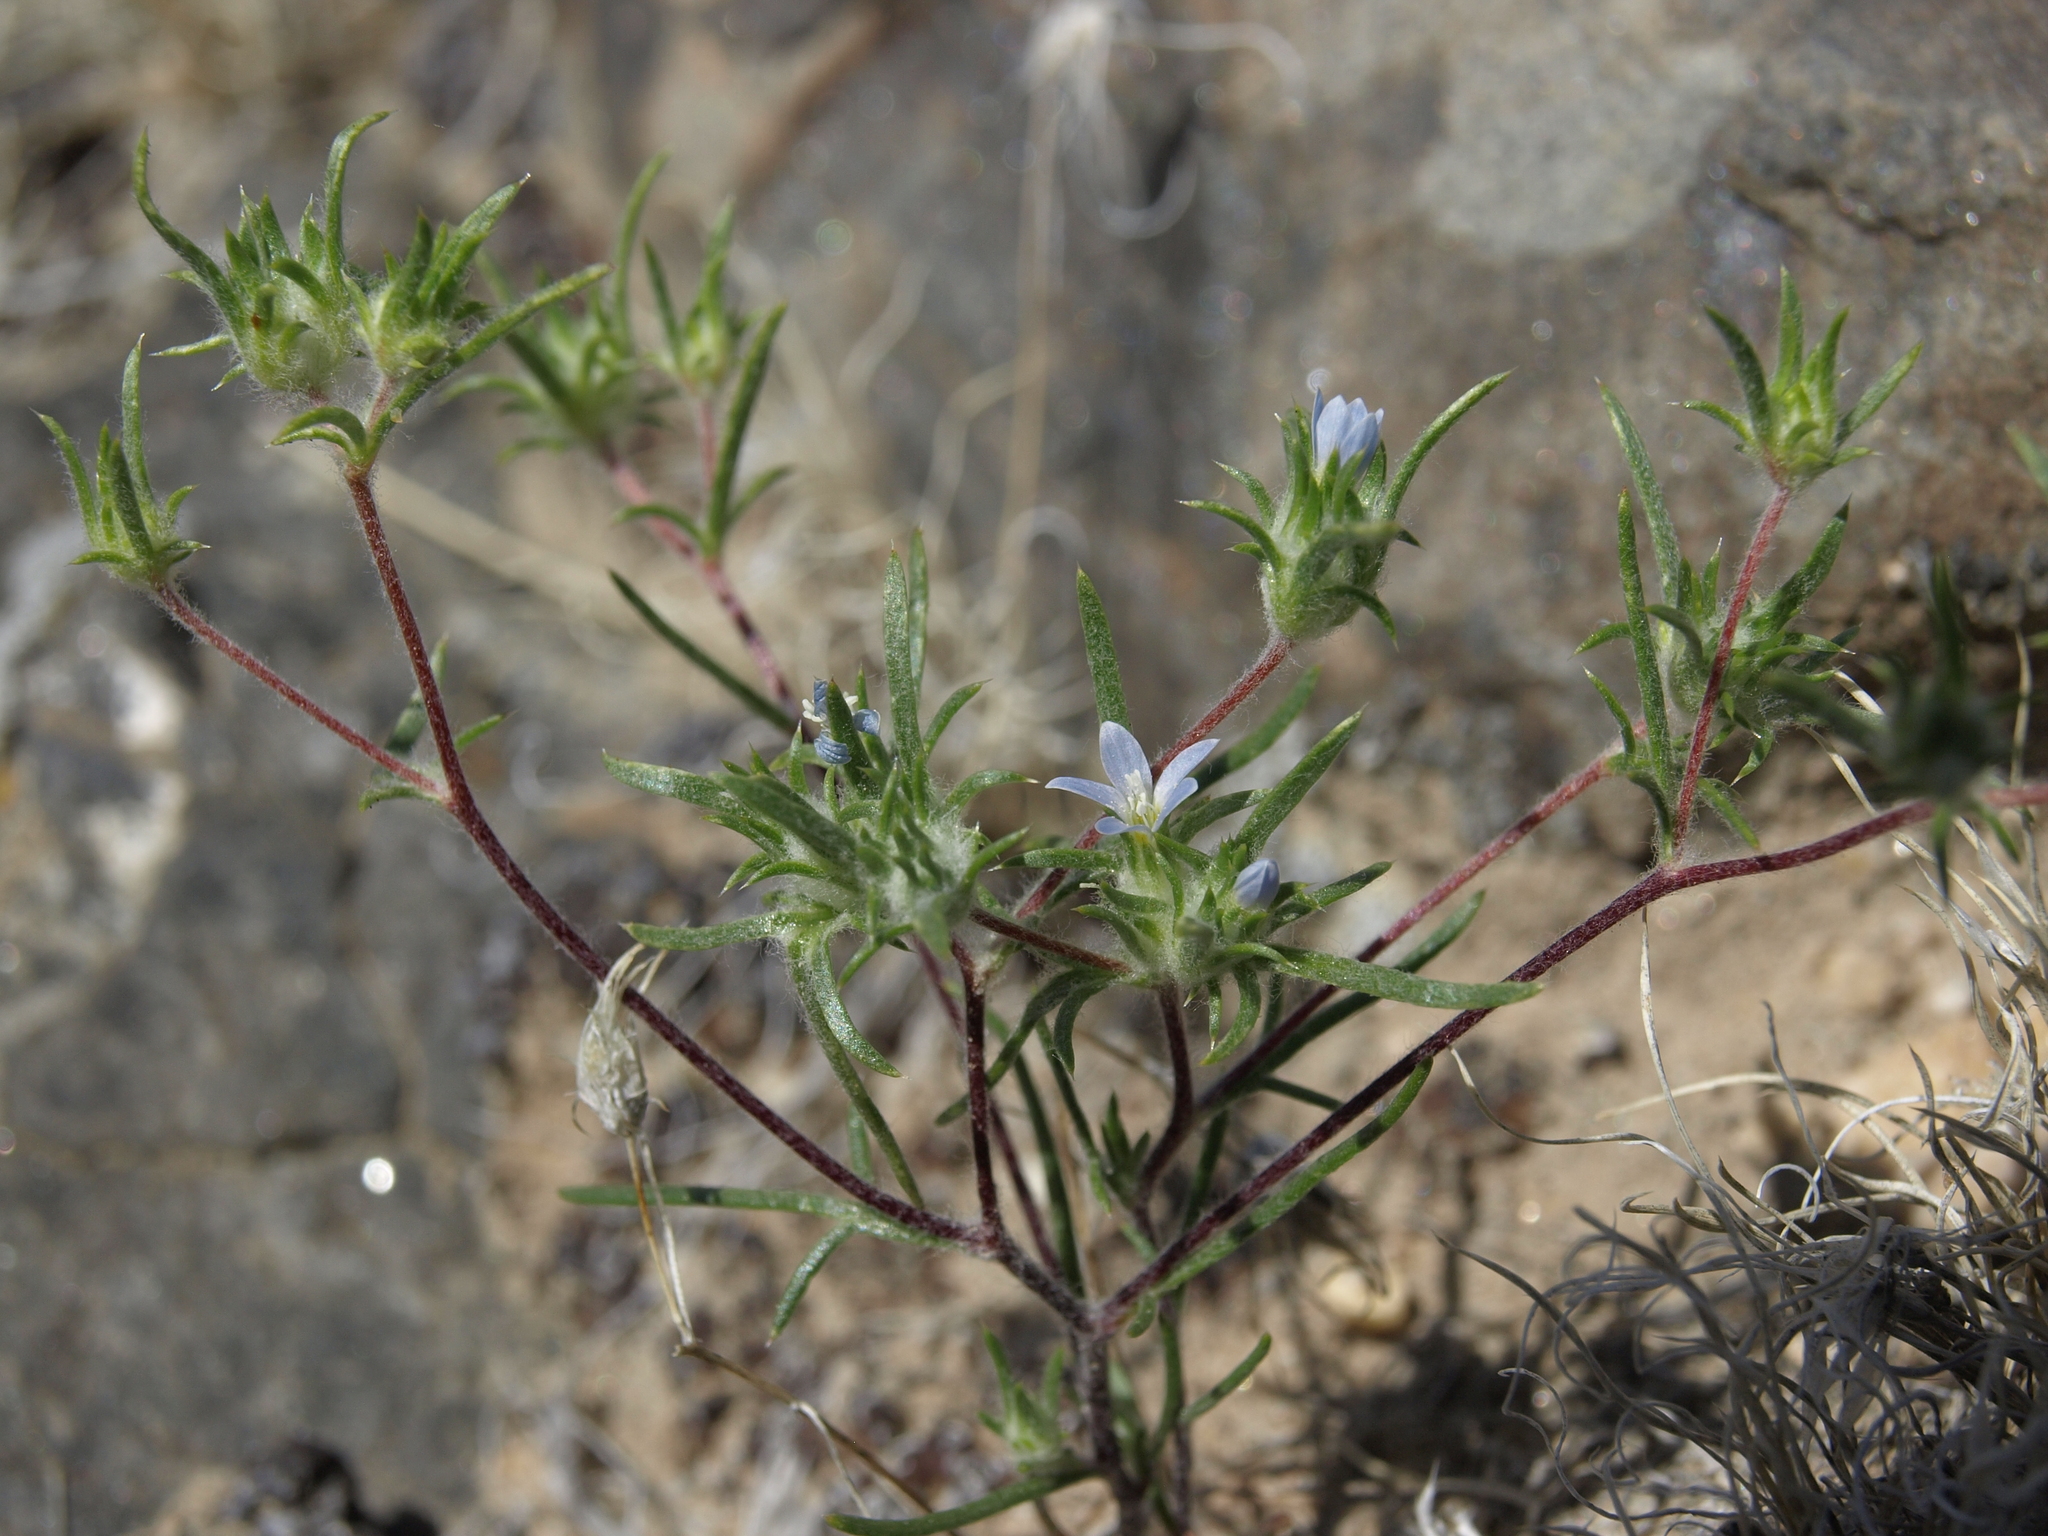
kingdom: Plantae
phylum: Tracheophyta
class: Magnoliopsida
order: Ericales
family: Polemoniaceae
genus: Eriastrum
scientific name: Eriastrum diffusum
